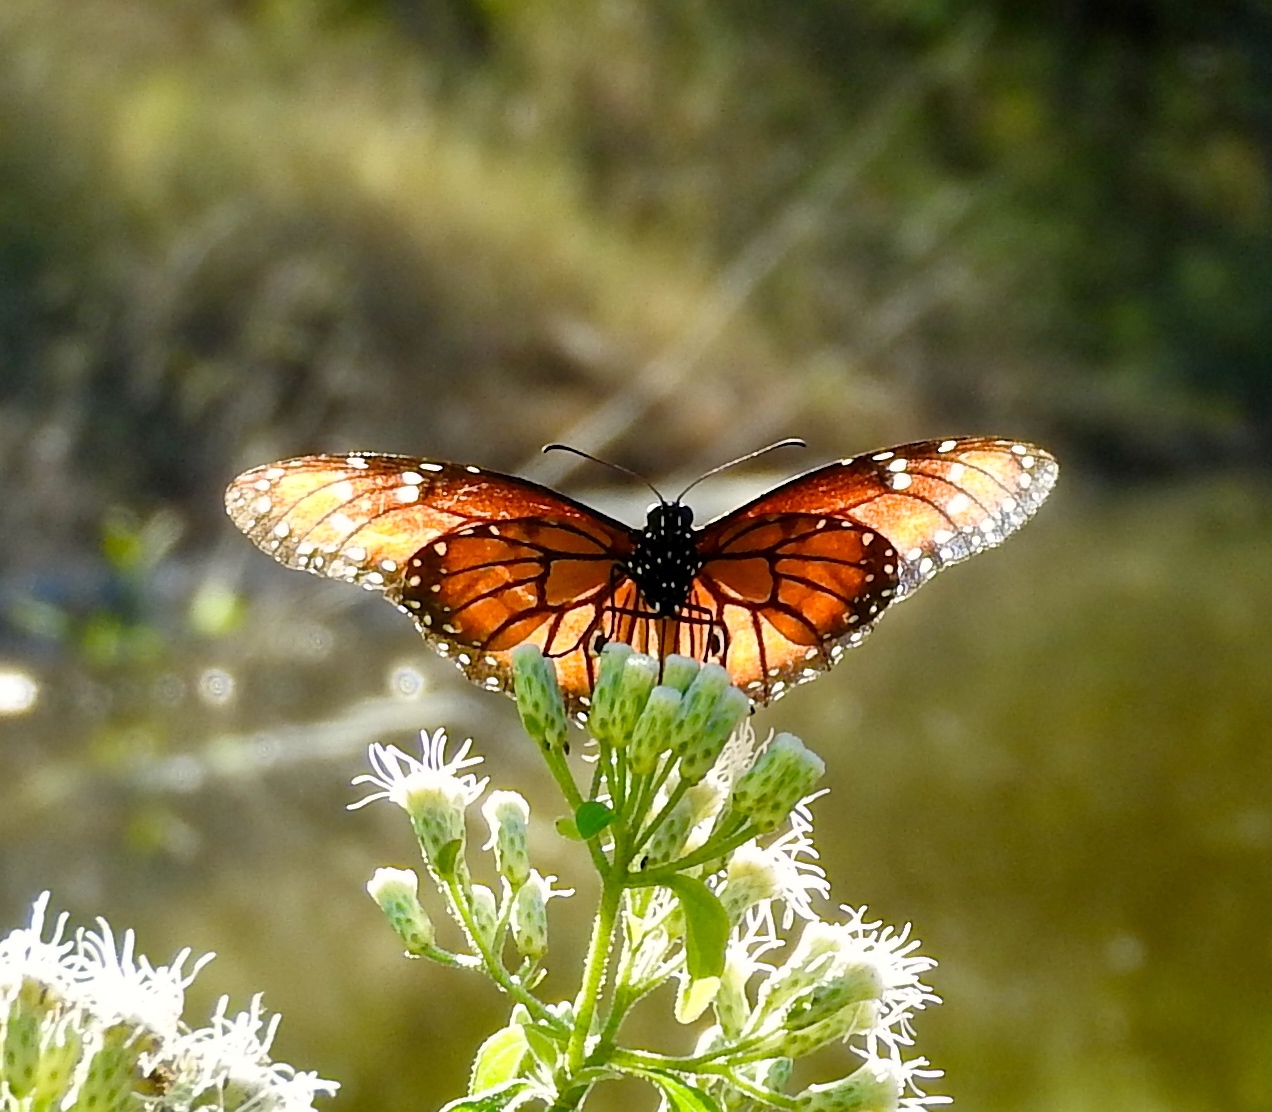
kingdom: Animalia
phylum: Arthropoda
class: Insecta
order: Lepidoptera
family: Nymphalidae
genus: Danaus
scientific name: Danaus eresimus
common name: Soldier
